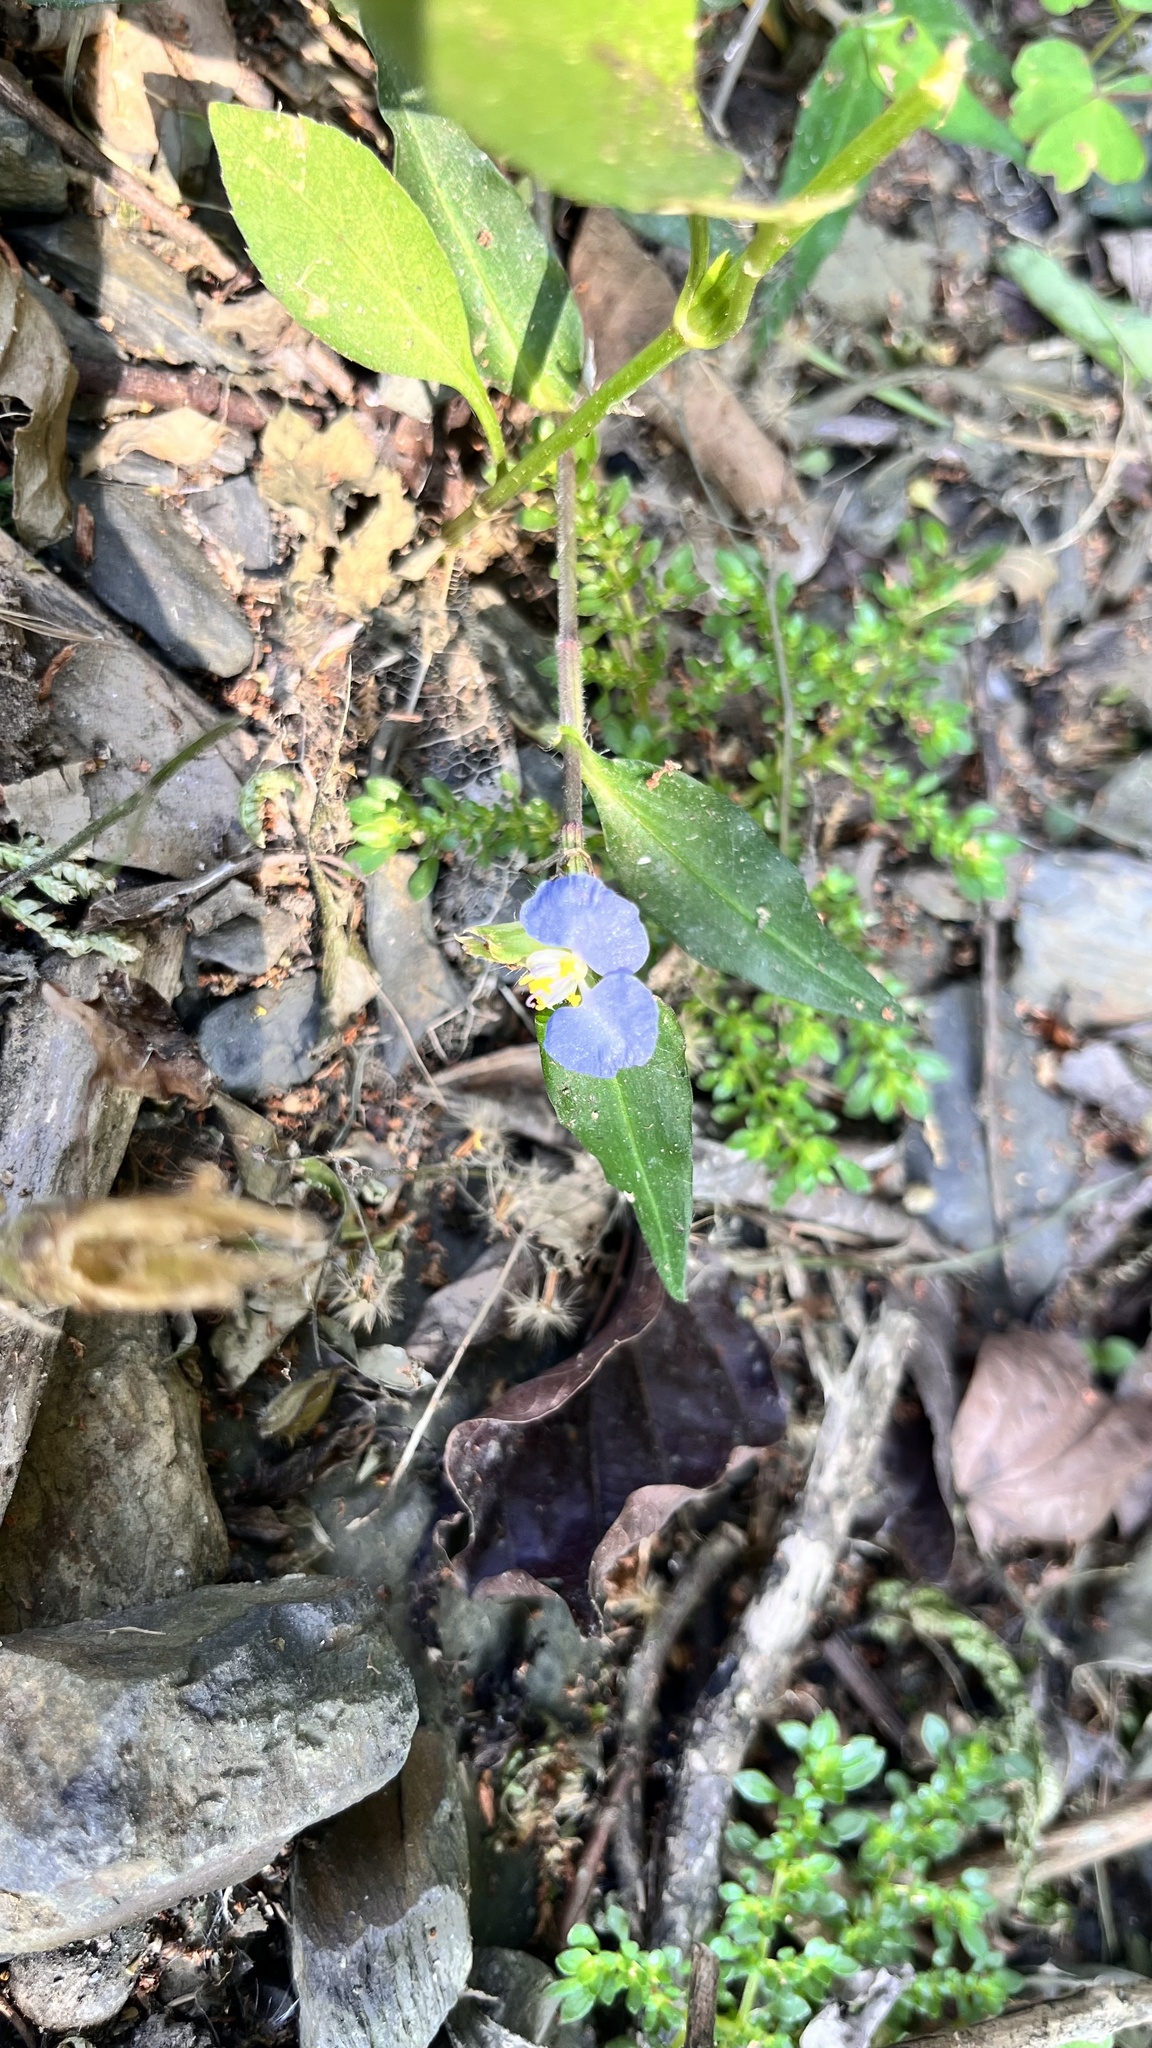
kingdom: Plantae
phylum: Tracheophyta
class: Liliopsida
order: Commelinales
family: Commelinaceae
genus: Commelina
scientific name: Commelina auriculata
